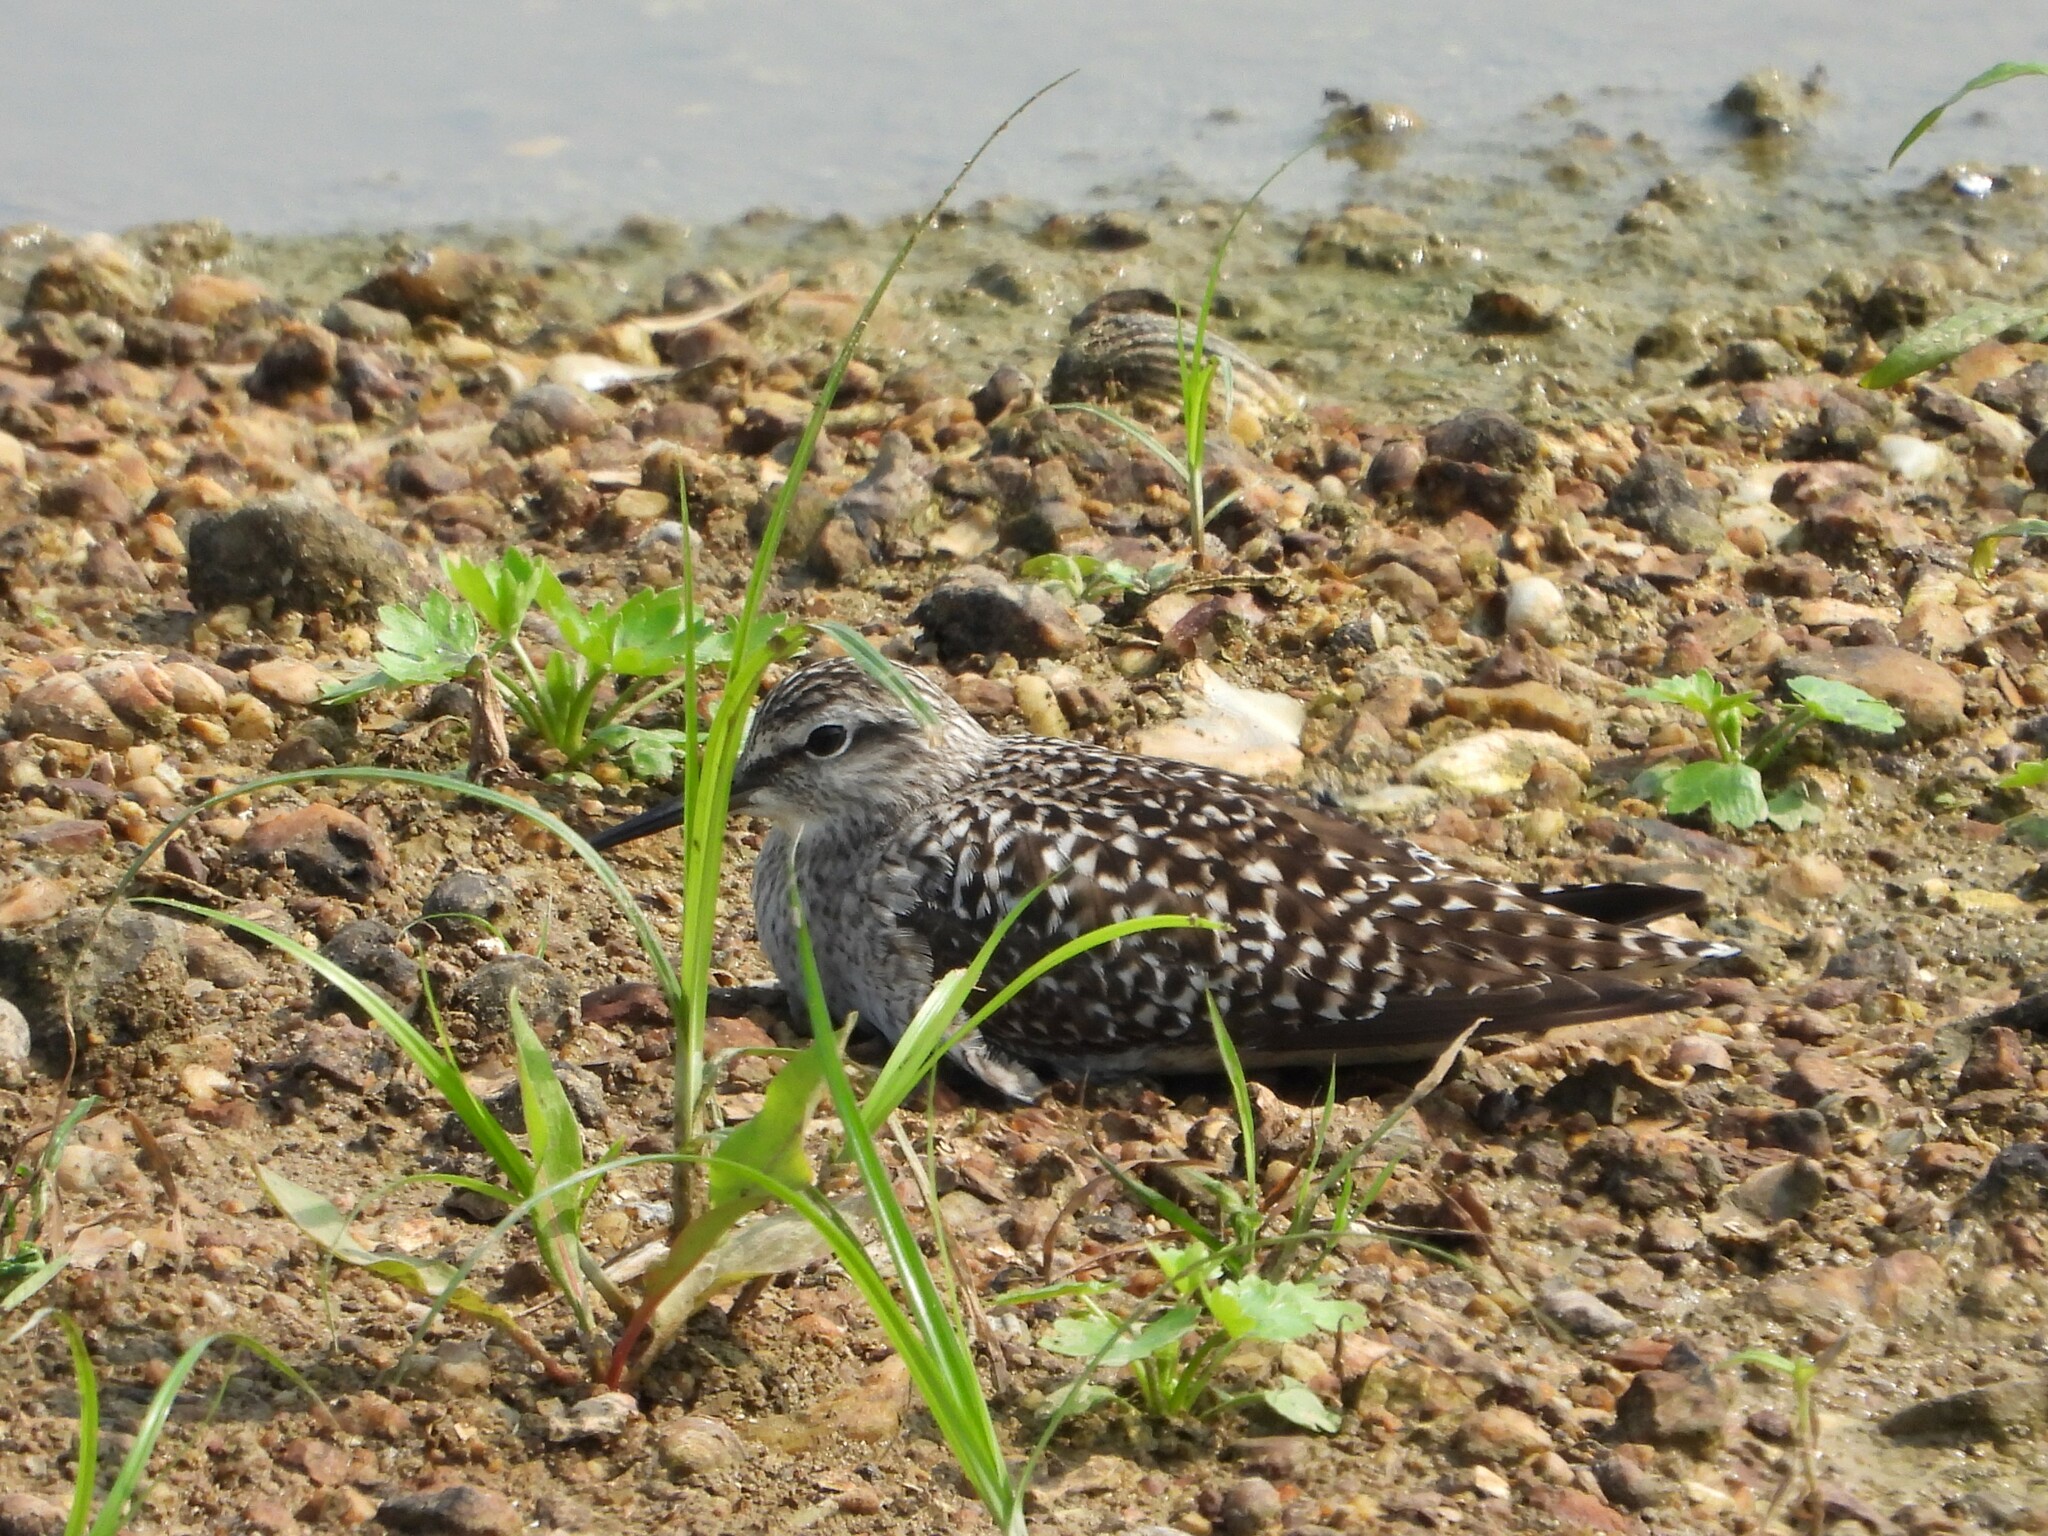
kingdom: Animalia
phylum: Chordata
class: Aves
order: Charadriiformes
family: Scolopacidae
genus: Tringa
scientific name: Tringa glareola
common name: Wood sandpiper
